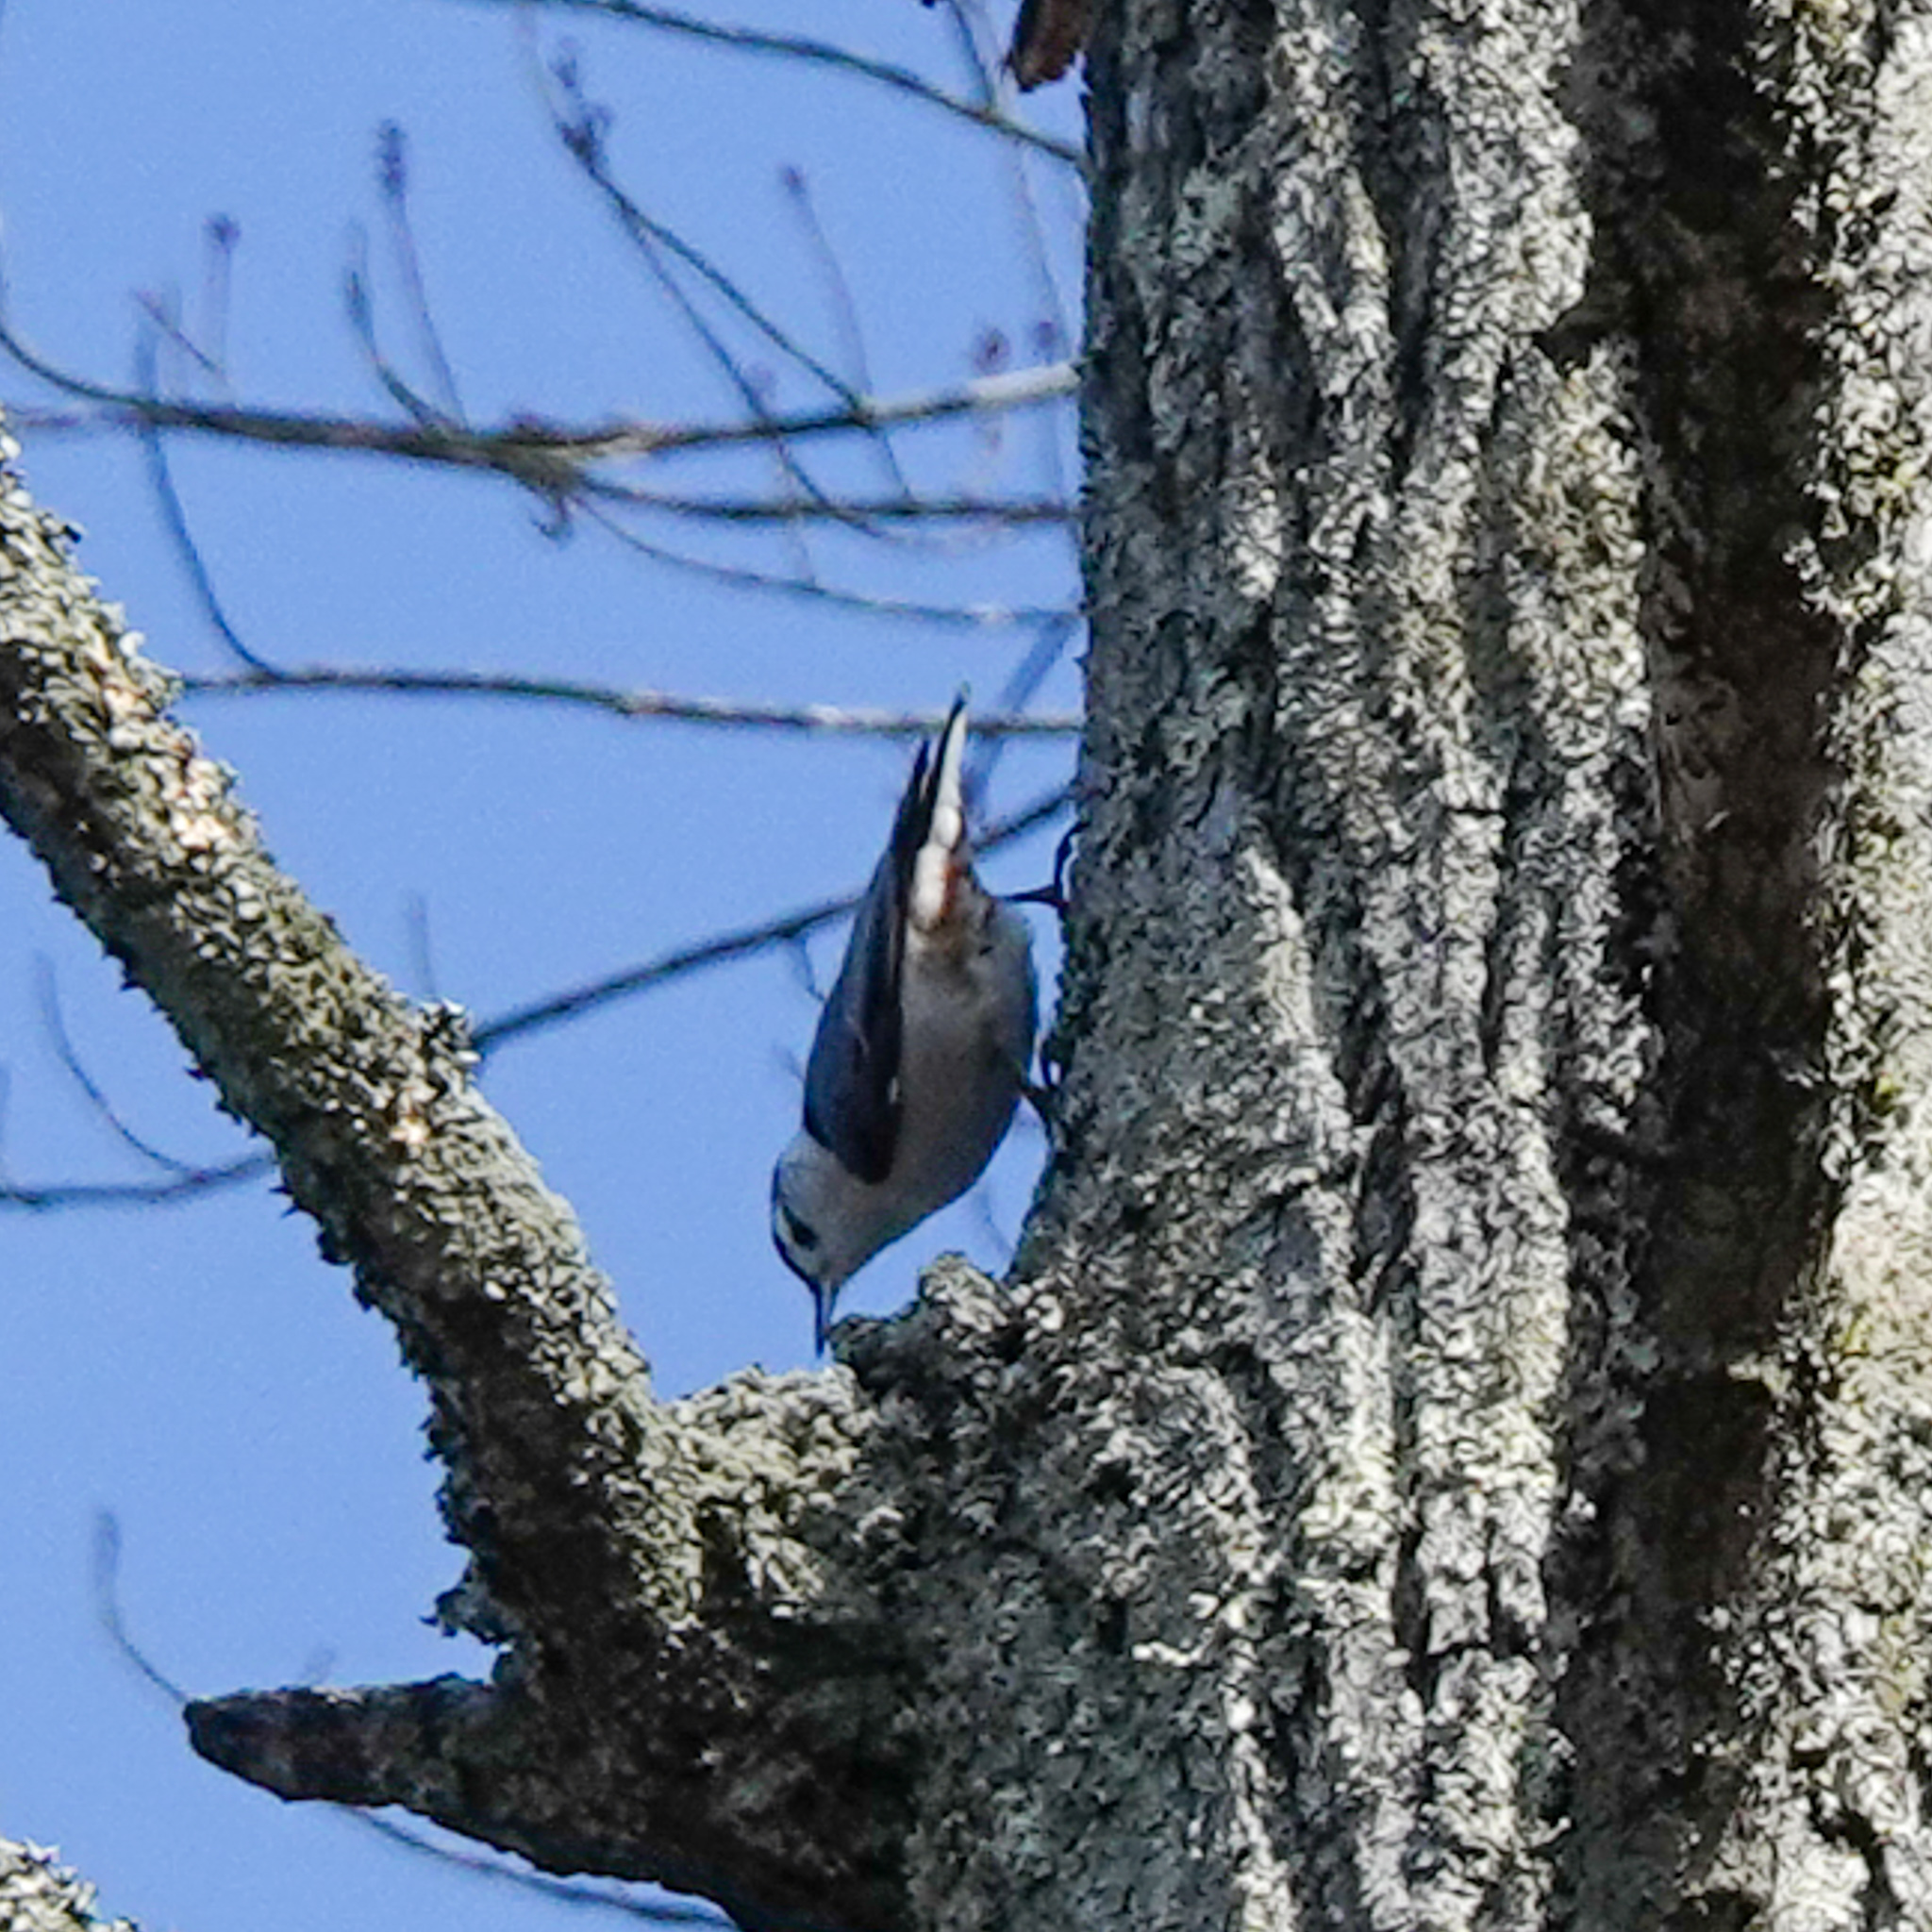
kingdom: Animalia
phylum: Chordata
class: Aves
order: Passeriformes
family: Sittidae
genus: Sitta
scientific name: Sitta carolinensis
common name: White-breasted nuthatch
